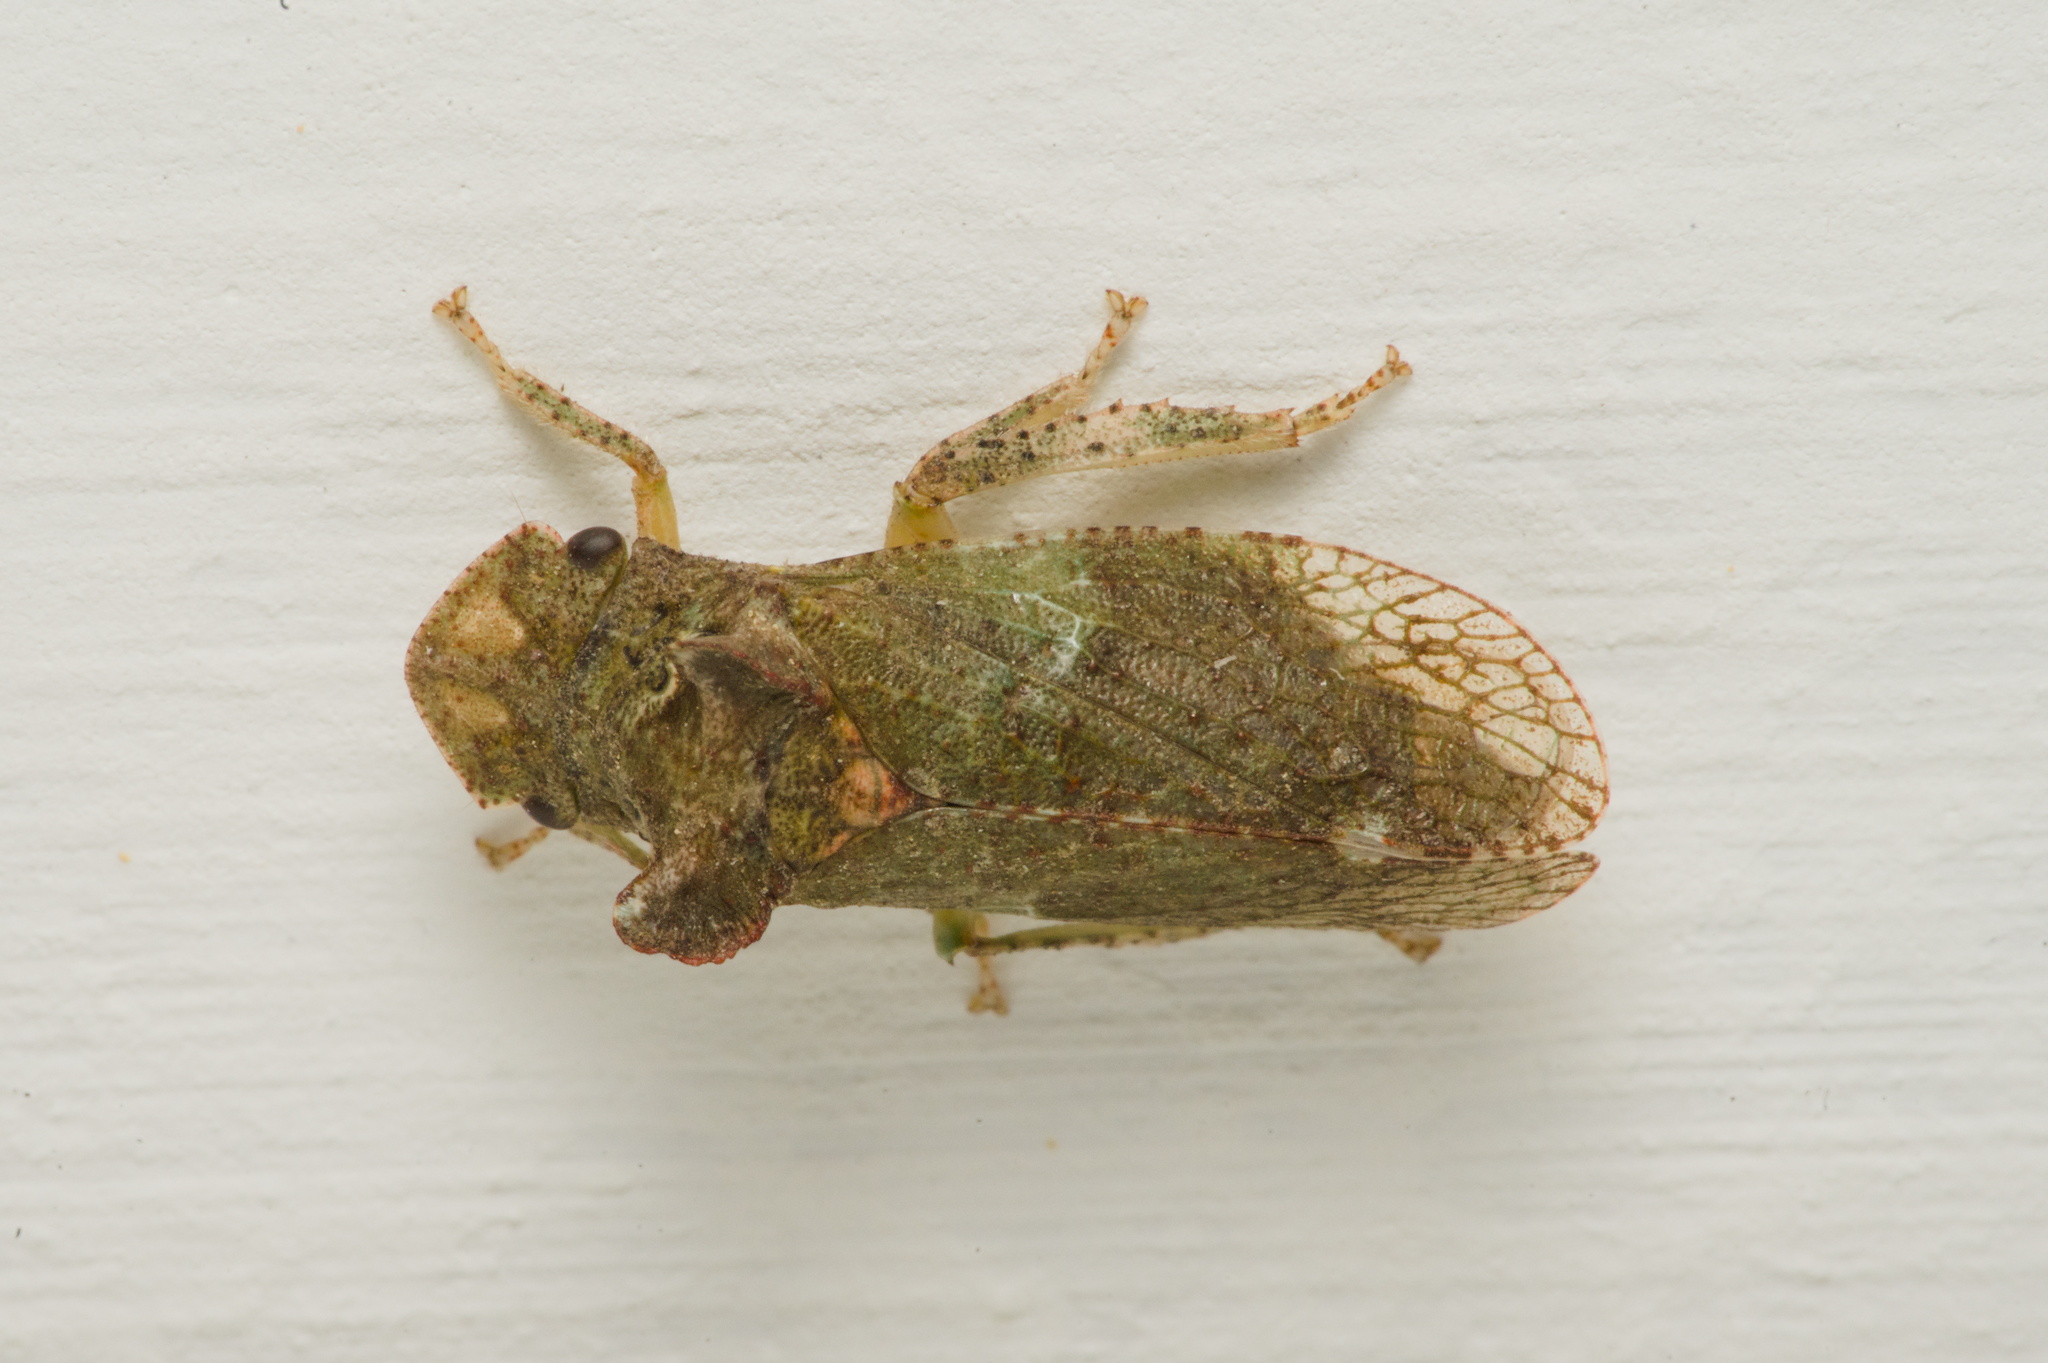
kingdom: Animalia
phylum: Arthropoda
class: Insecta
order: Hemiptera
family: Cicadellidae
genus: Ledra
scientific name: Ledra aurita
